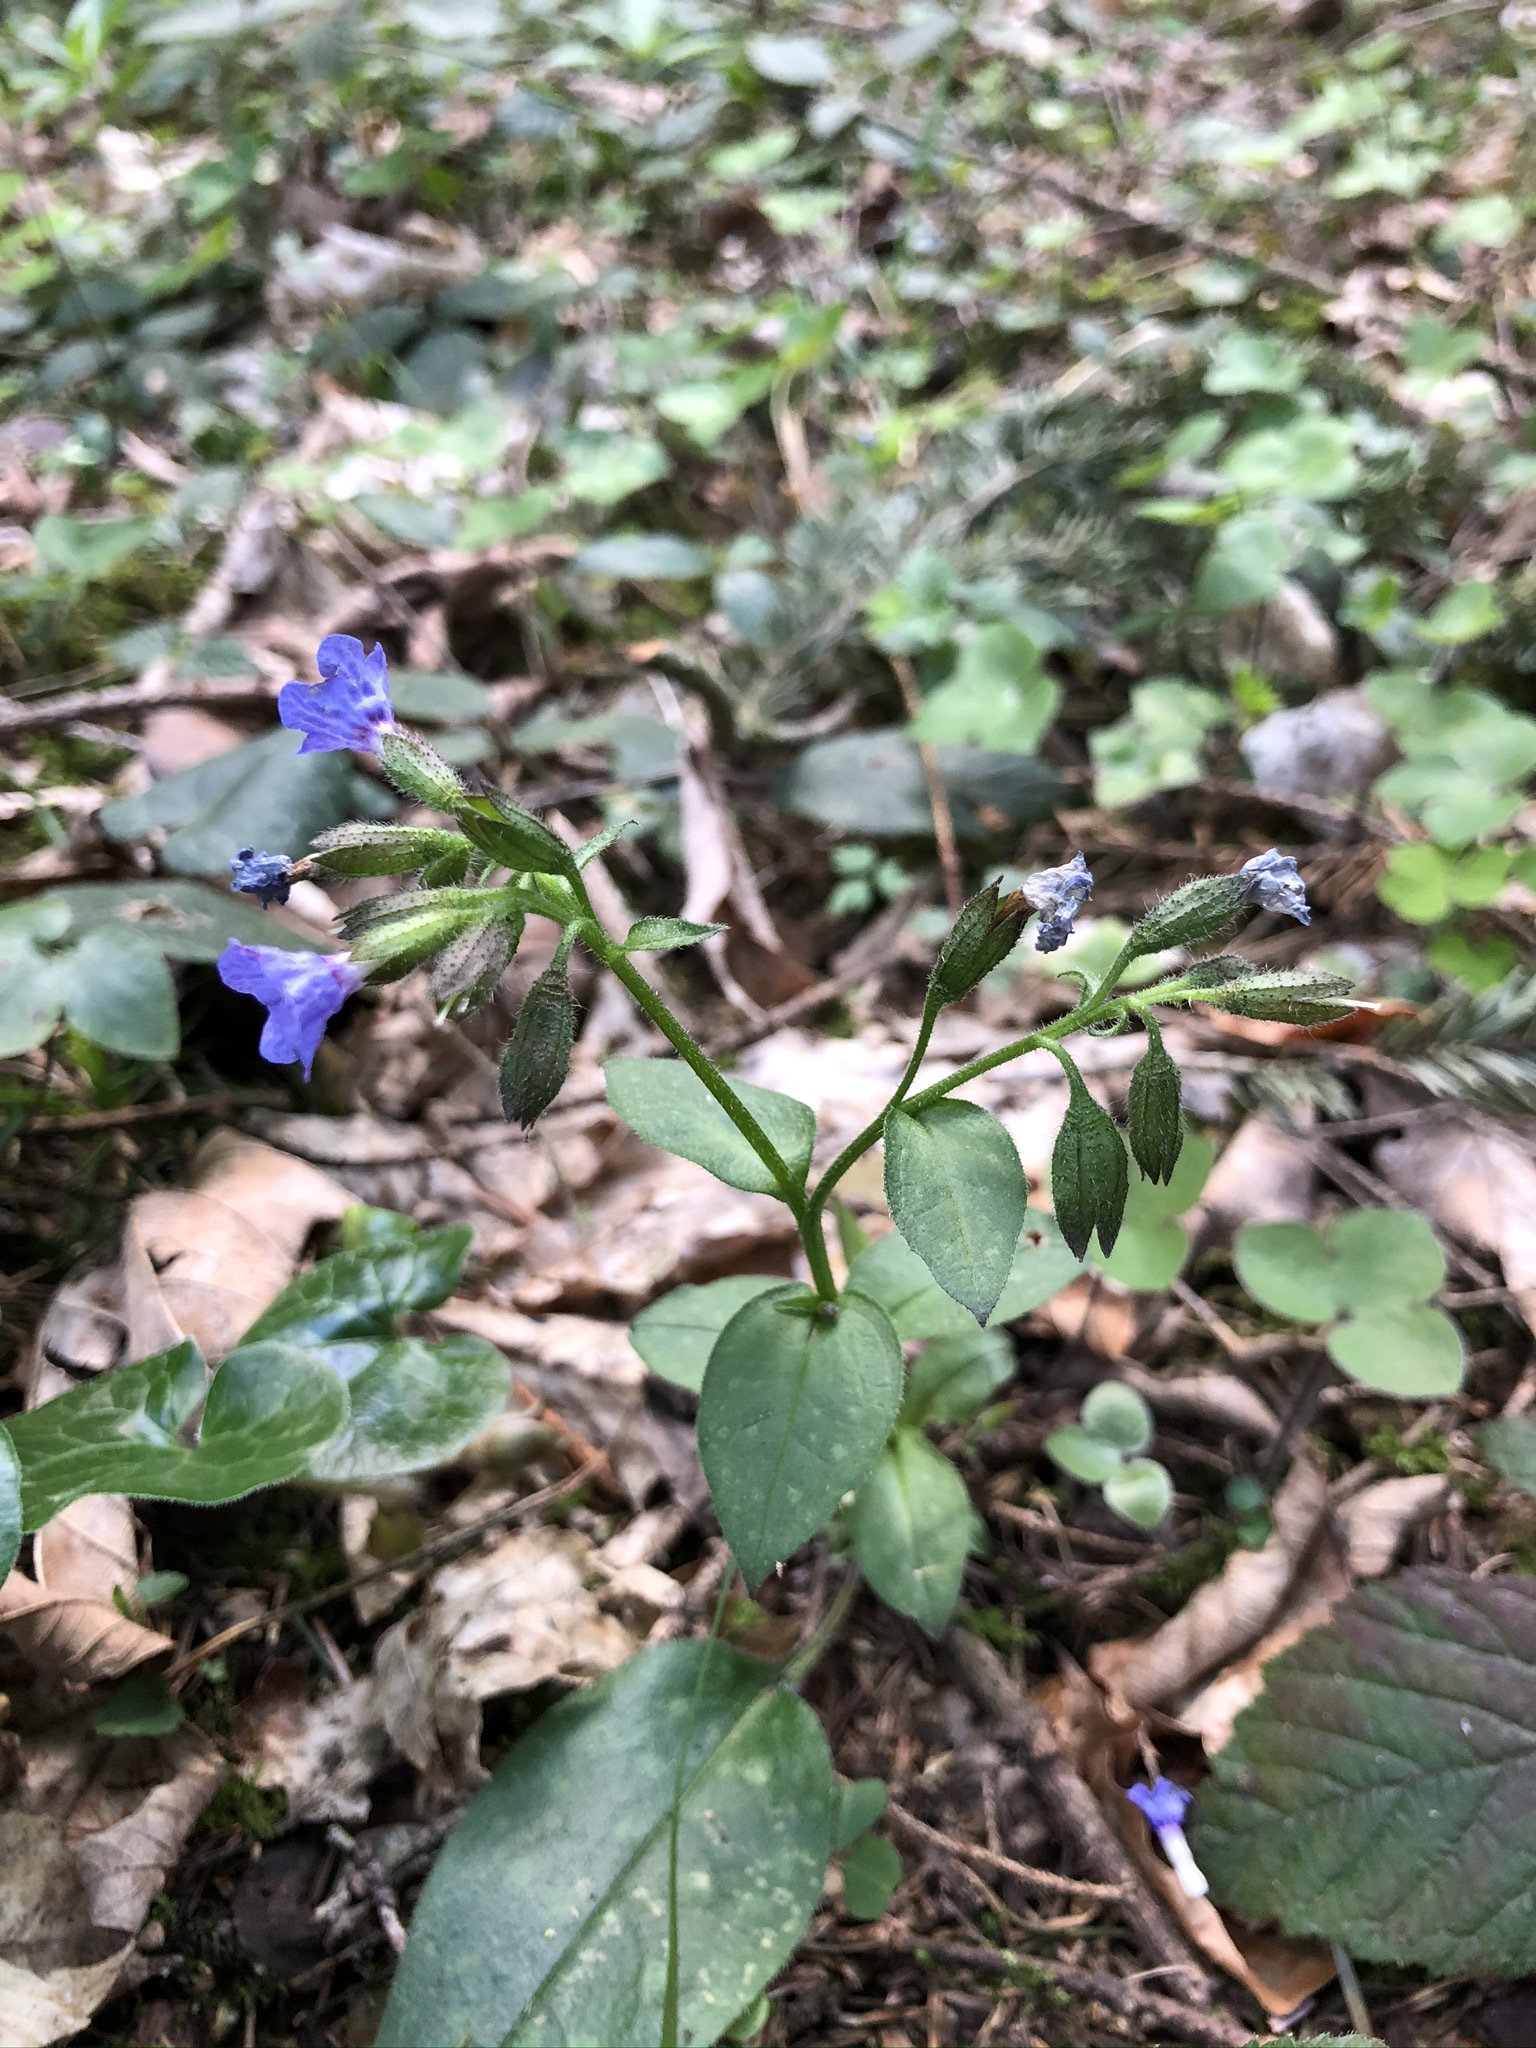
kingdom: Plantae
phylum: Tracheophyta
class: Magnoliopsida
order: Boraginales
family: Boraginaceae
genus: Pulmonaria
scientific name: Pulmonaria officinalis
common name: Lungwort
